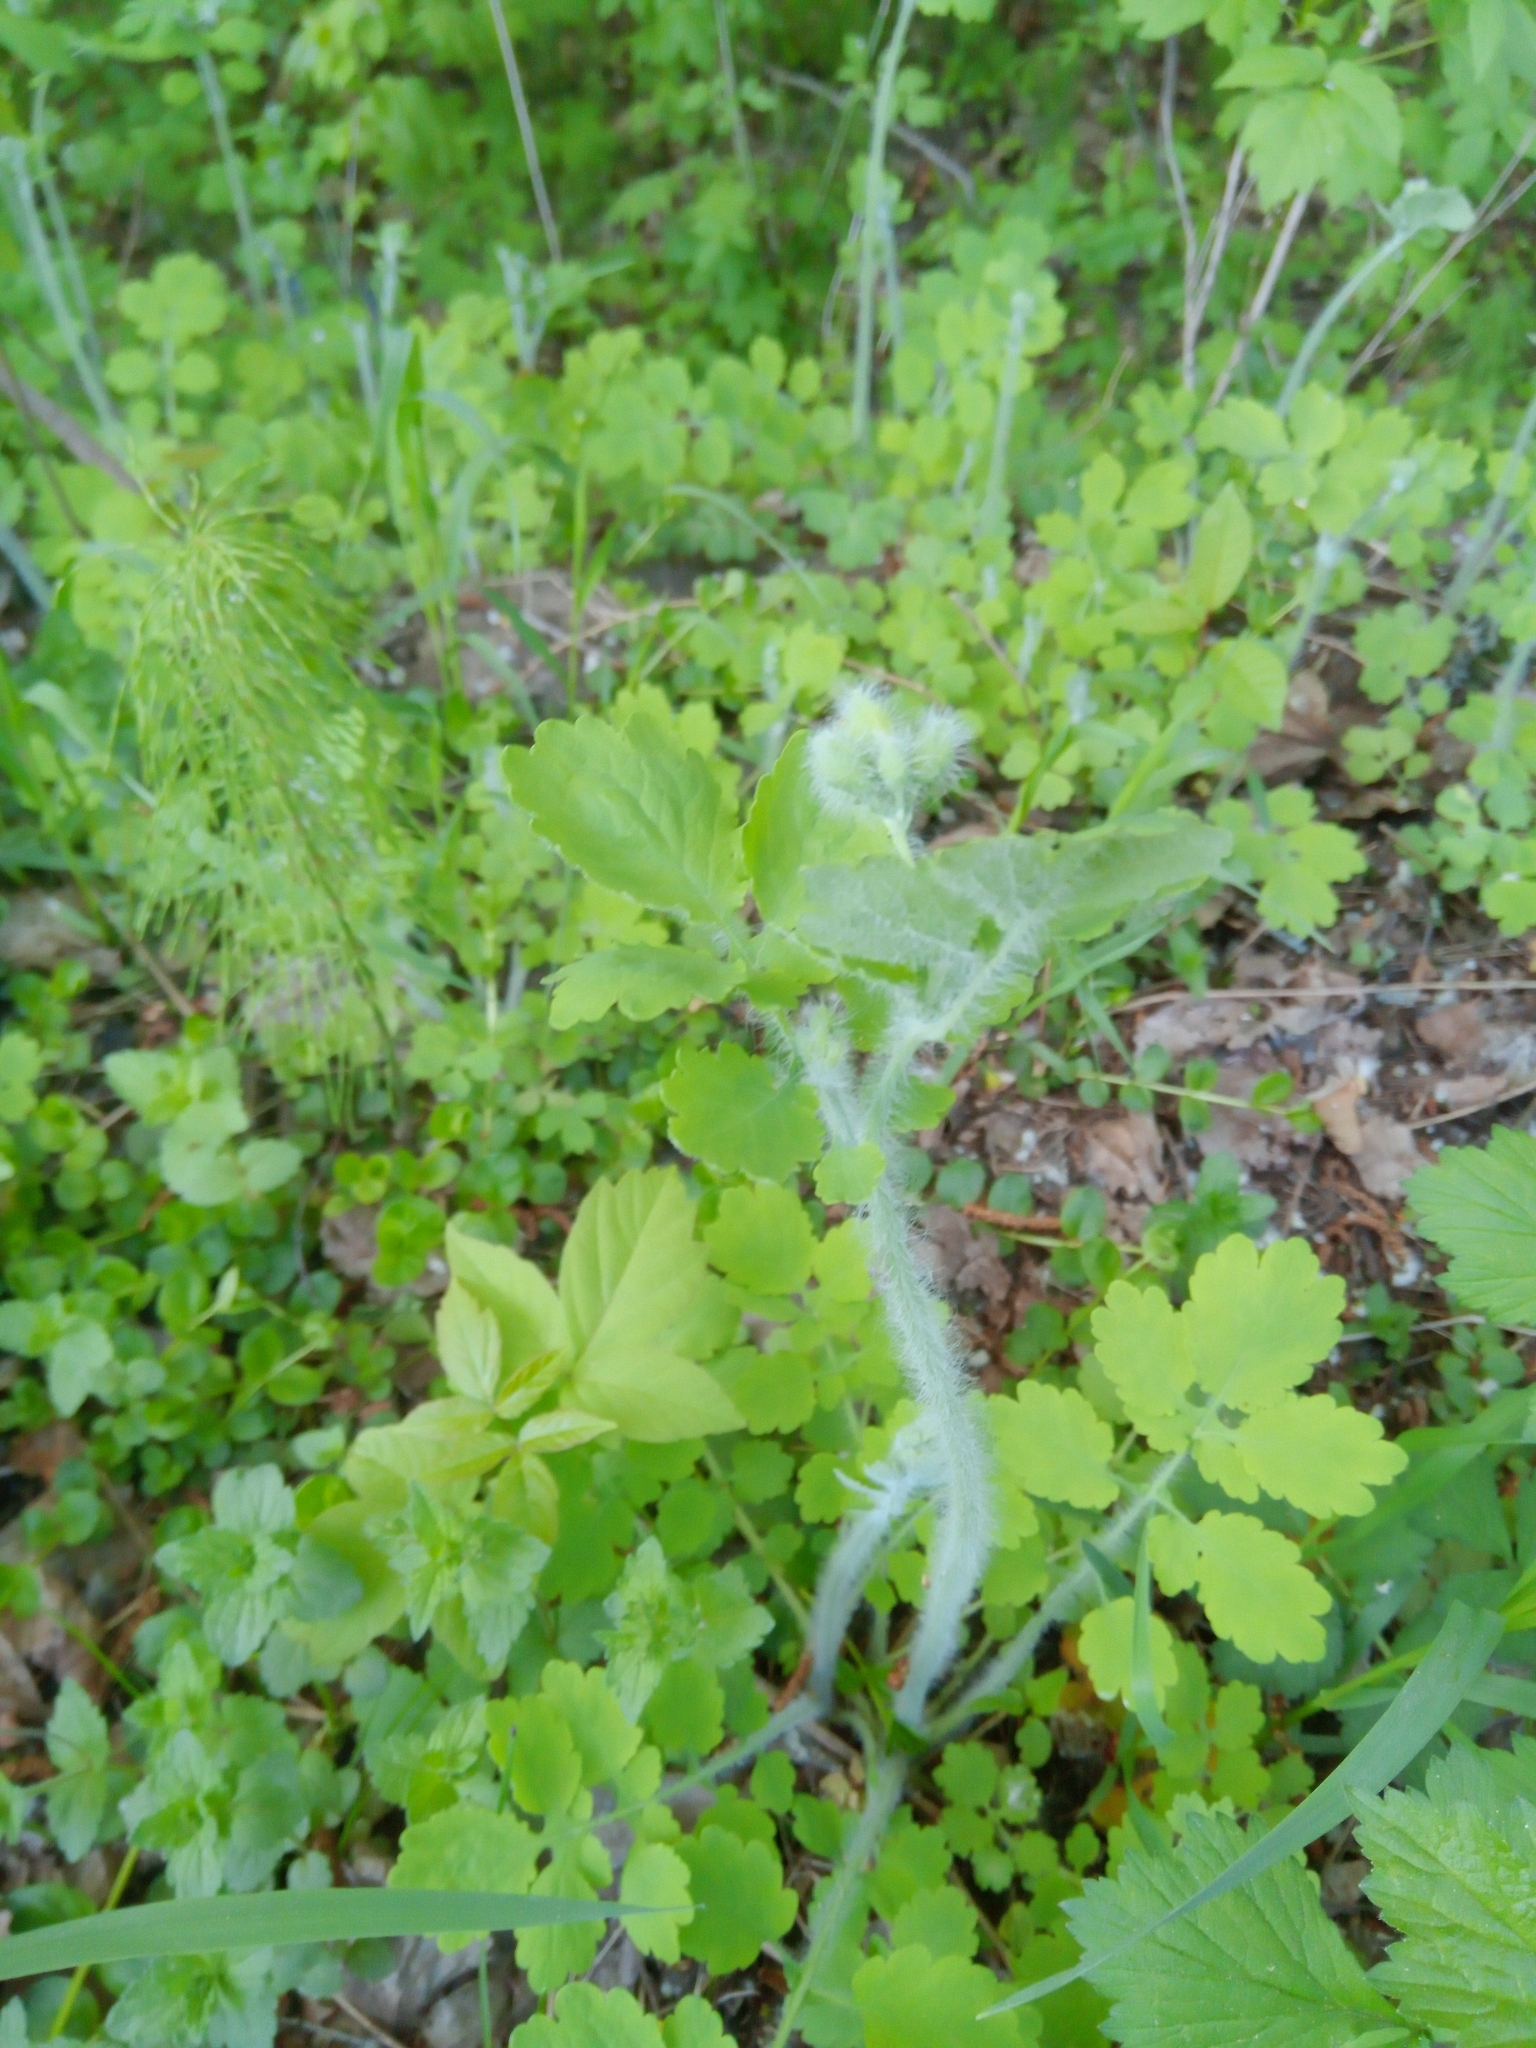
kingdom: Plantae
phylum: Tracheophyta
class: Magnoliopsida
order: Ranunculales
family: Papaveraceae
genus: Chelidonium
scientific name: Chelidonium majus
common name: Greater celandine
